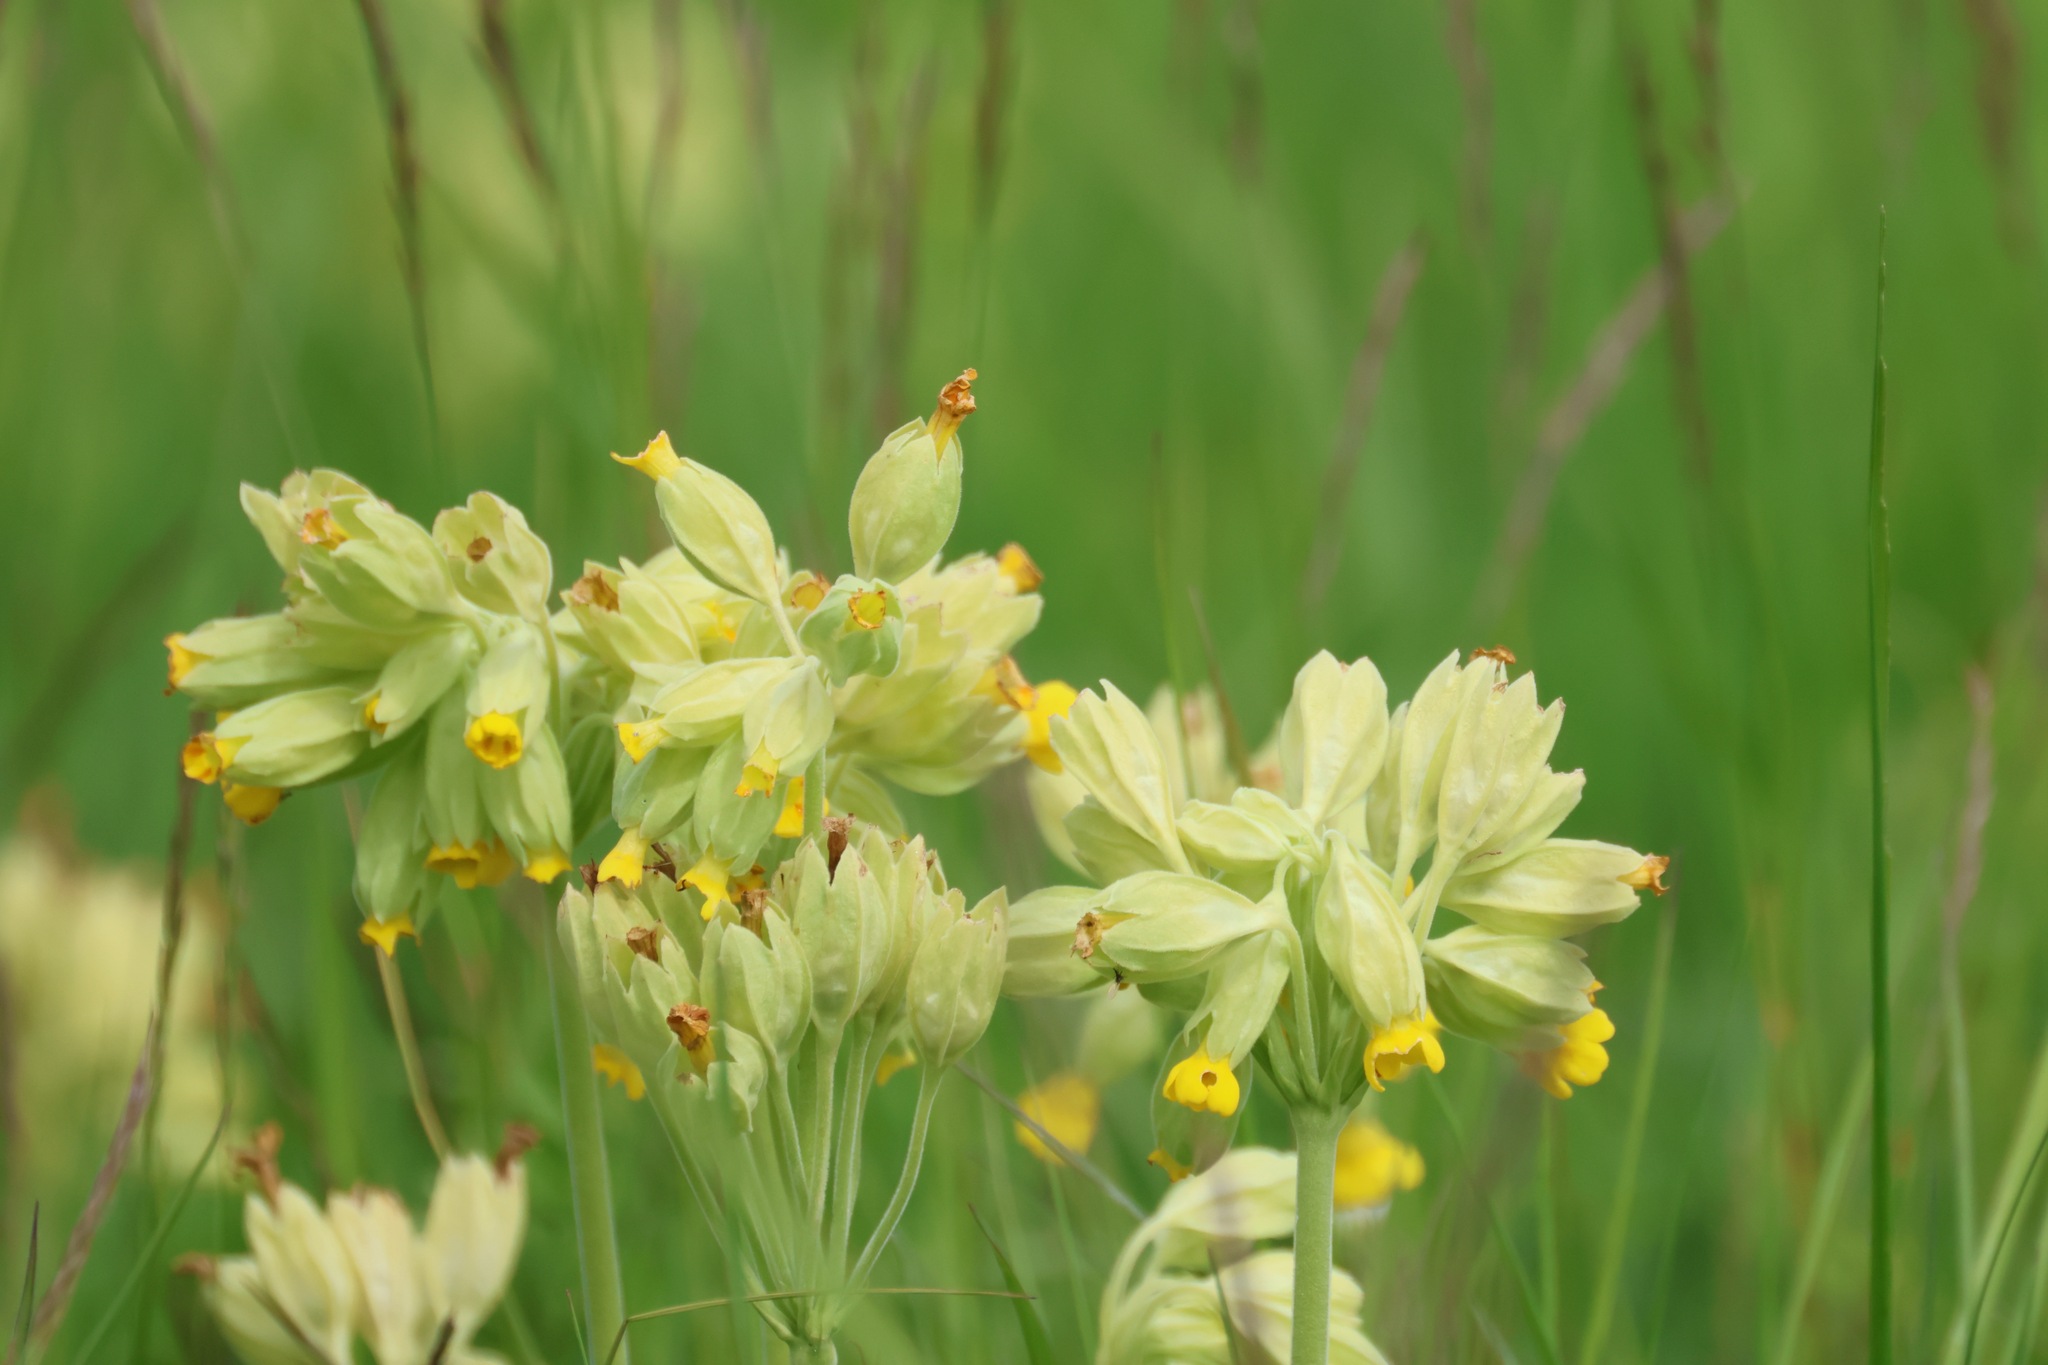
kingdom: Plantae
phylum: Tracheophyta
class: Magnoliopsida
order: Ericales
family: Primulaceae
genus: Primula
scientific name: Primula veris
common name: Cowslip
